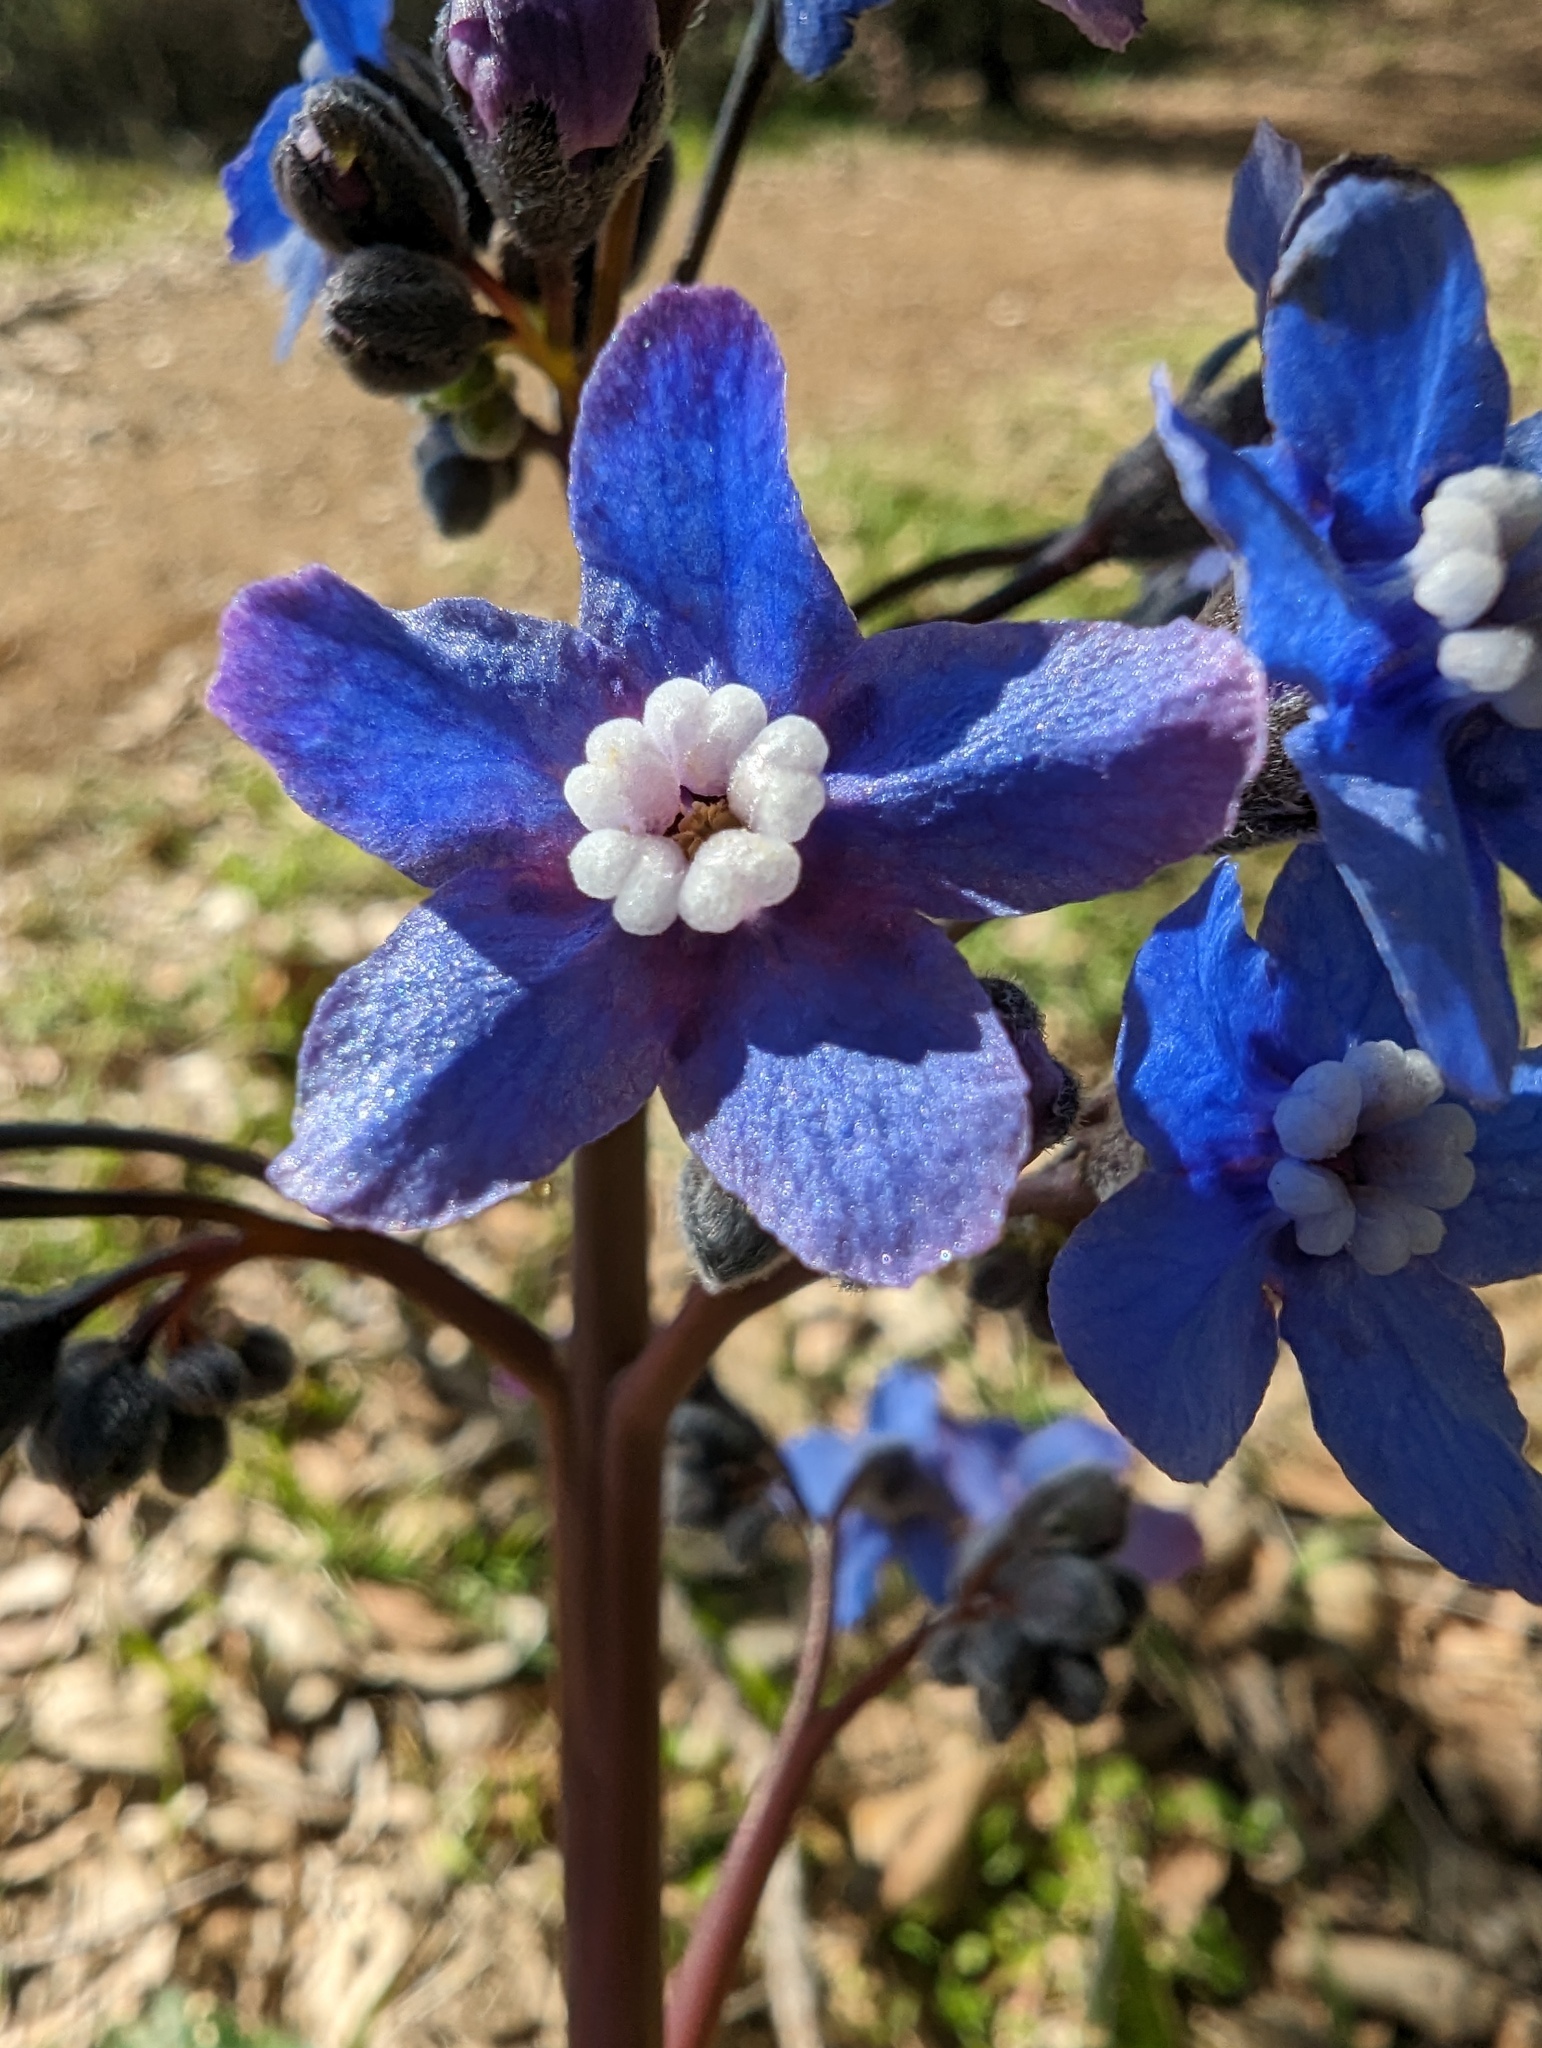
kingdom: Plantae
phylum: Tracheophyta
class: Magnoliopsida
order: Boraginales
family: Boraginaceae
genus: Adelinia
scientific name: Adelinia grande
